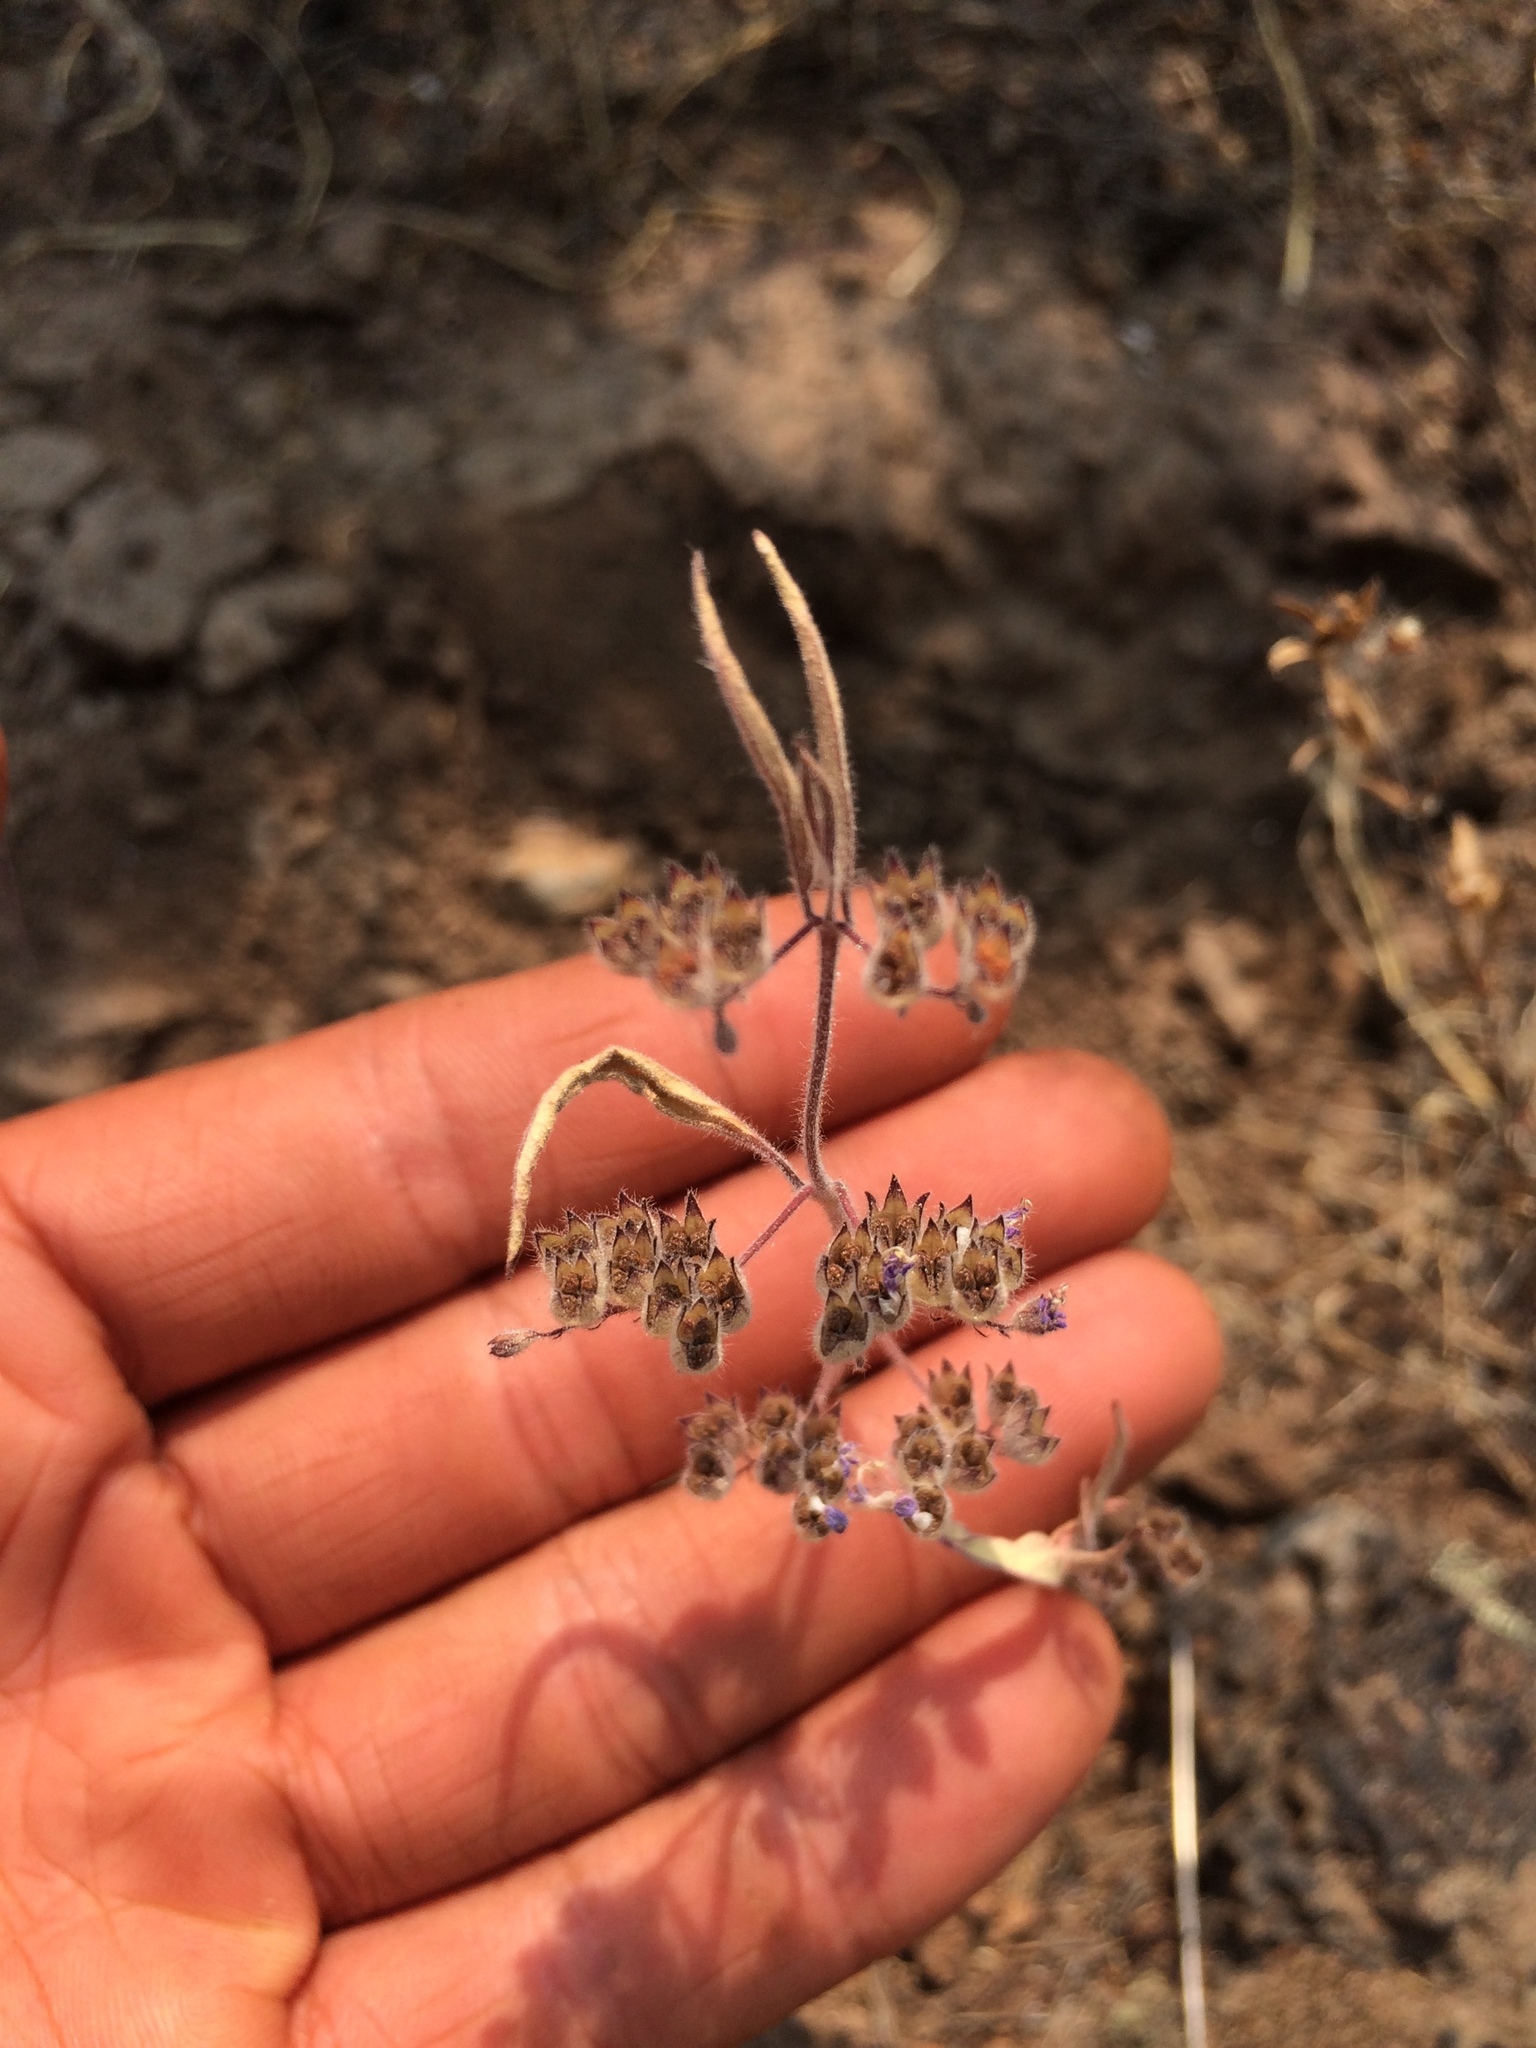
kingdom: Plantae
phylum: Tracheophyta
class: Magnoliopsida
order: Lamiales
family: Lamiaceae
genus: Trichostema
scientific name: Trichostema simulatum
